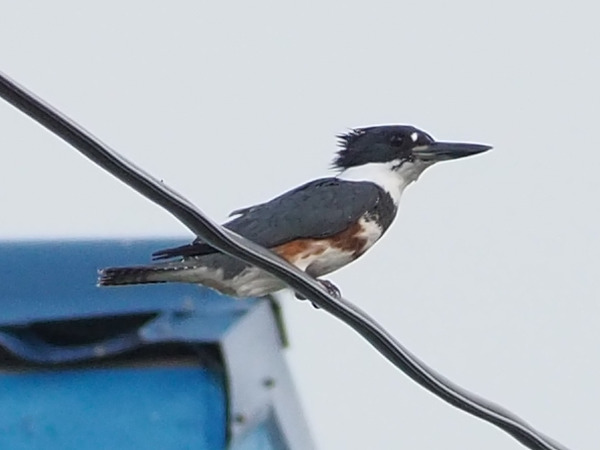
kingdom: Animalia
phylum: Chordata
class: Aves
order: Coraciiformes
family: Alcedinidae
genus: Megaceryle
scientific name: Megaceryle alcyon
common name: Belted kingfisher
